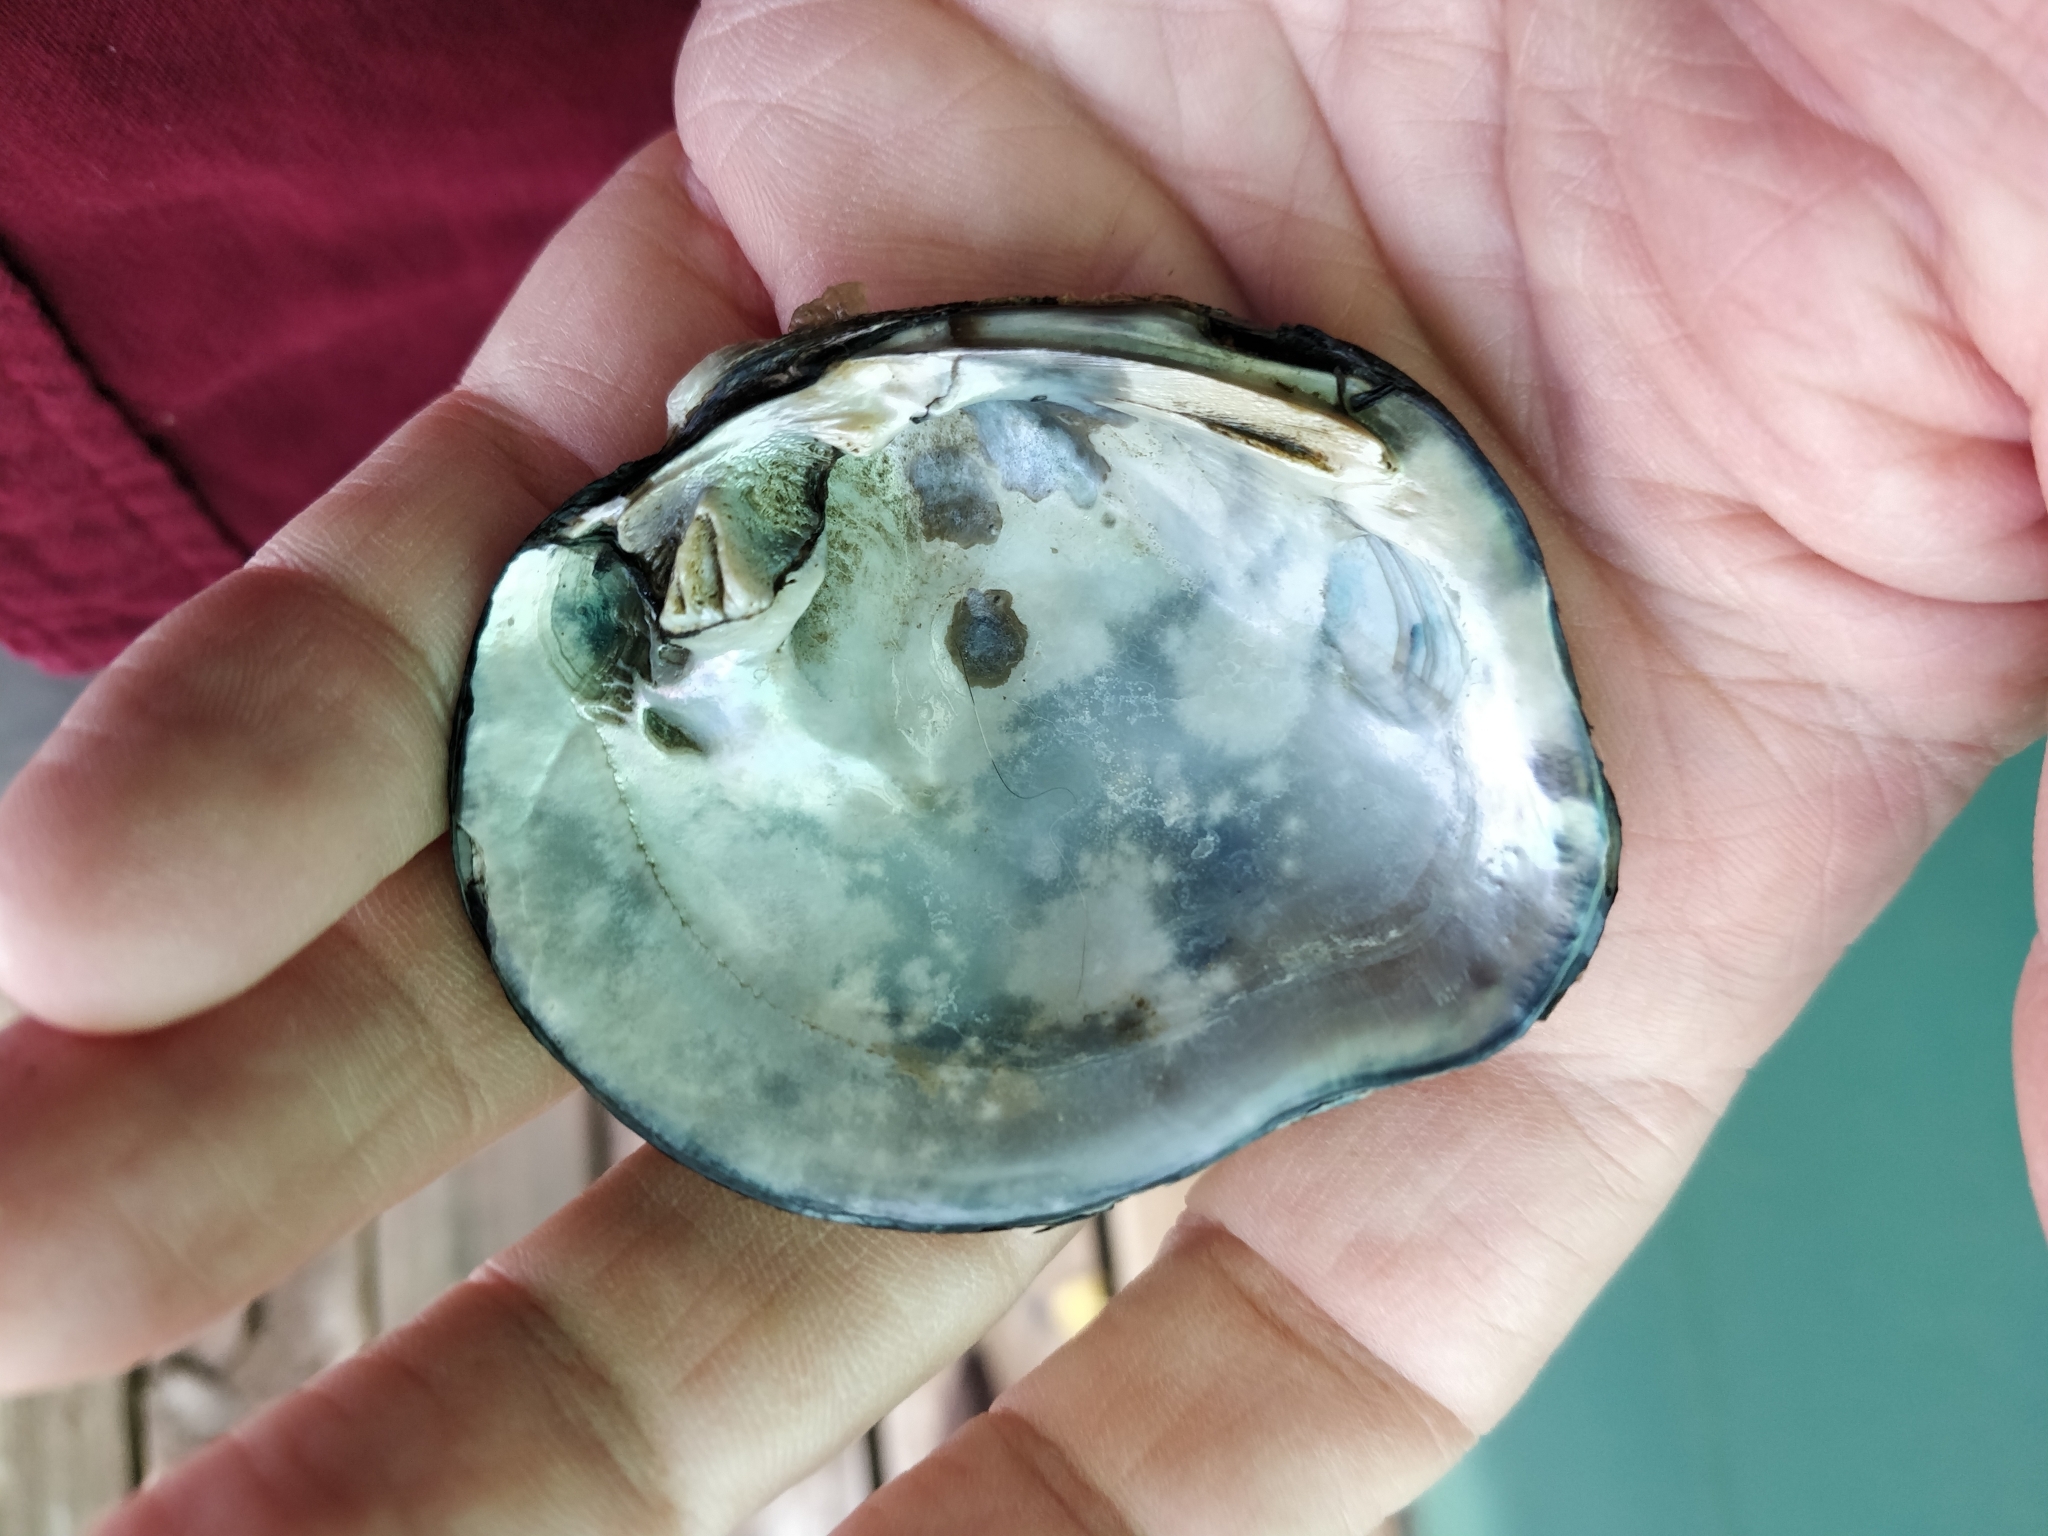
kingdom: Animalia
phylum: Mollusca
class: Bivalvia
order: Unionida
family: Unionidae
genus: Quadrula
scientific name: Quadrula quadrula
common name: Mapleleaf
